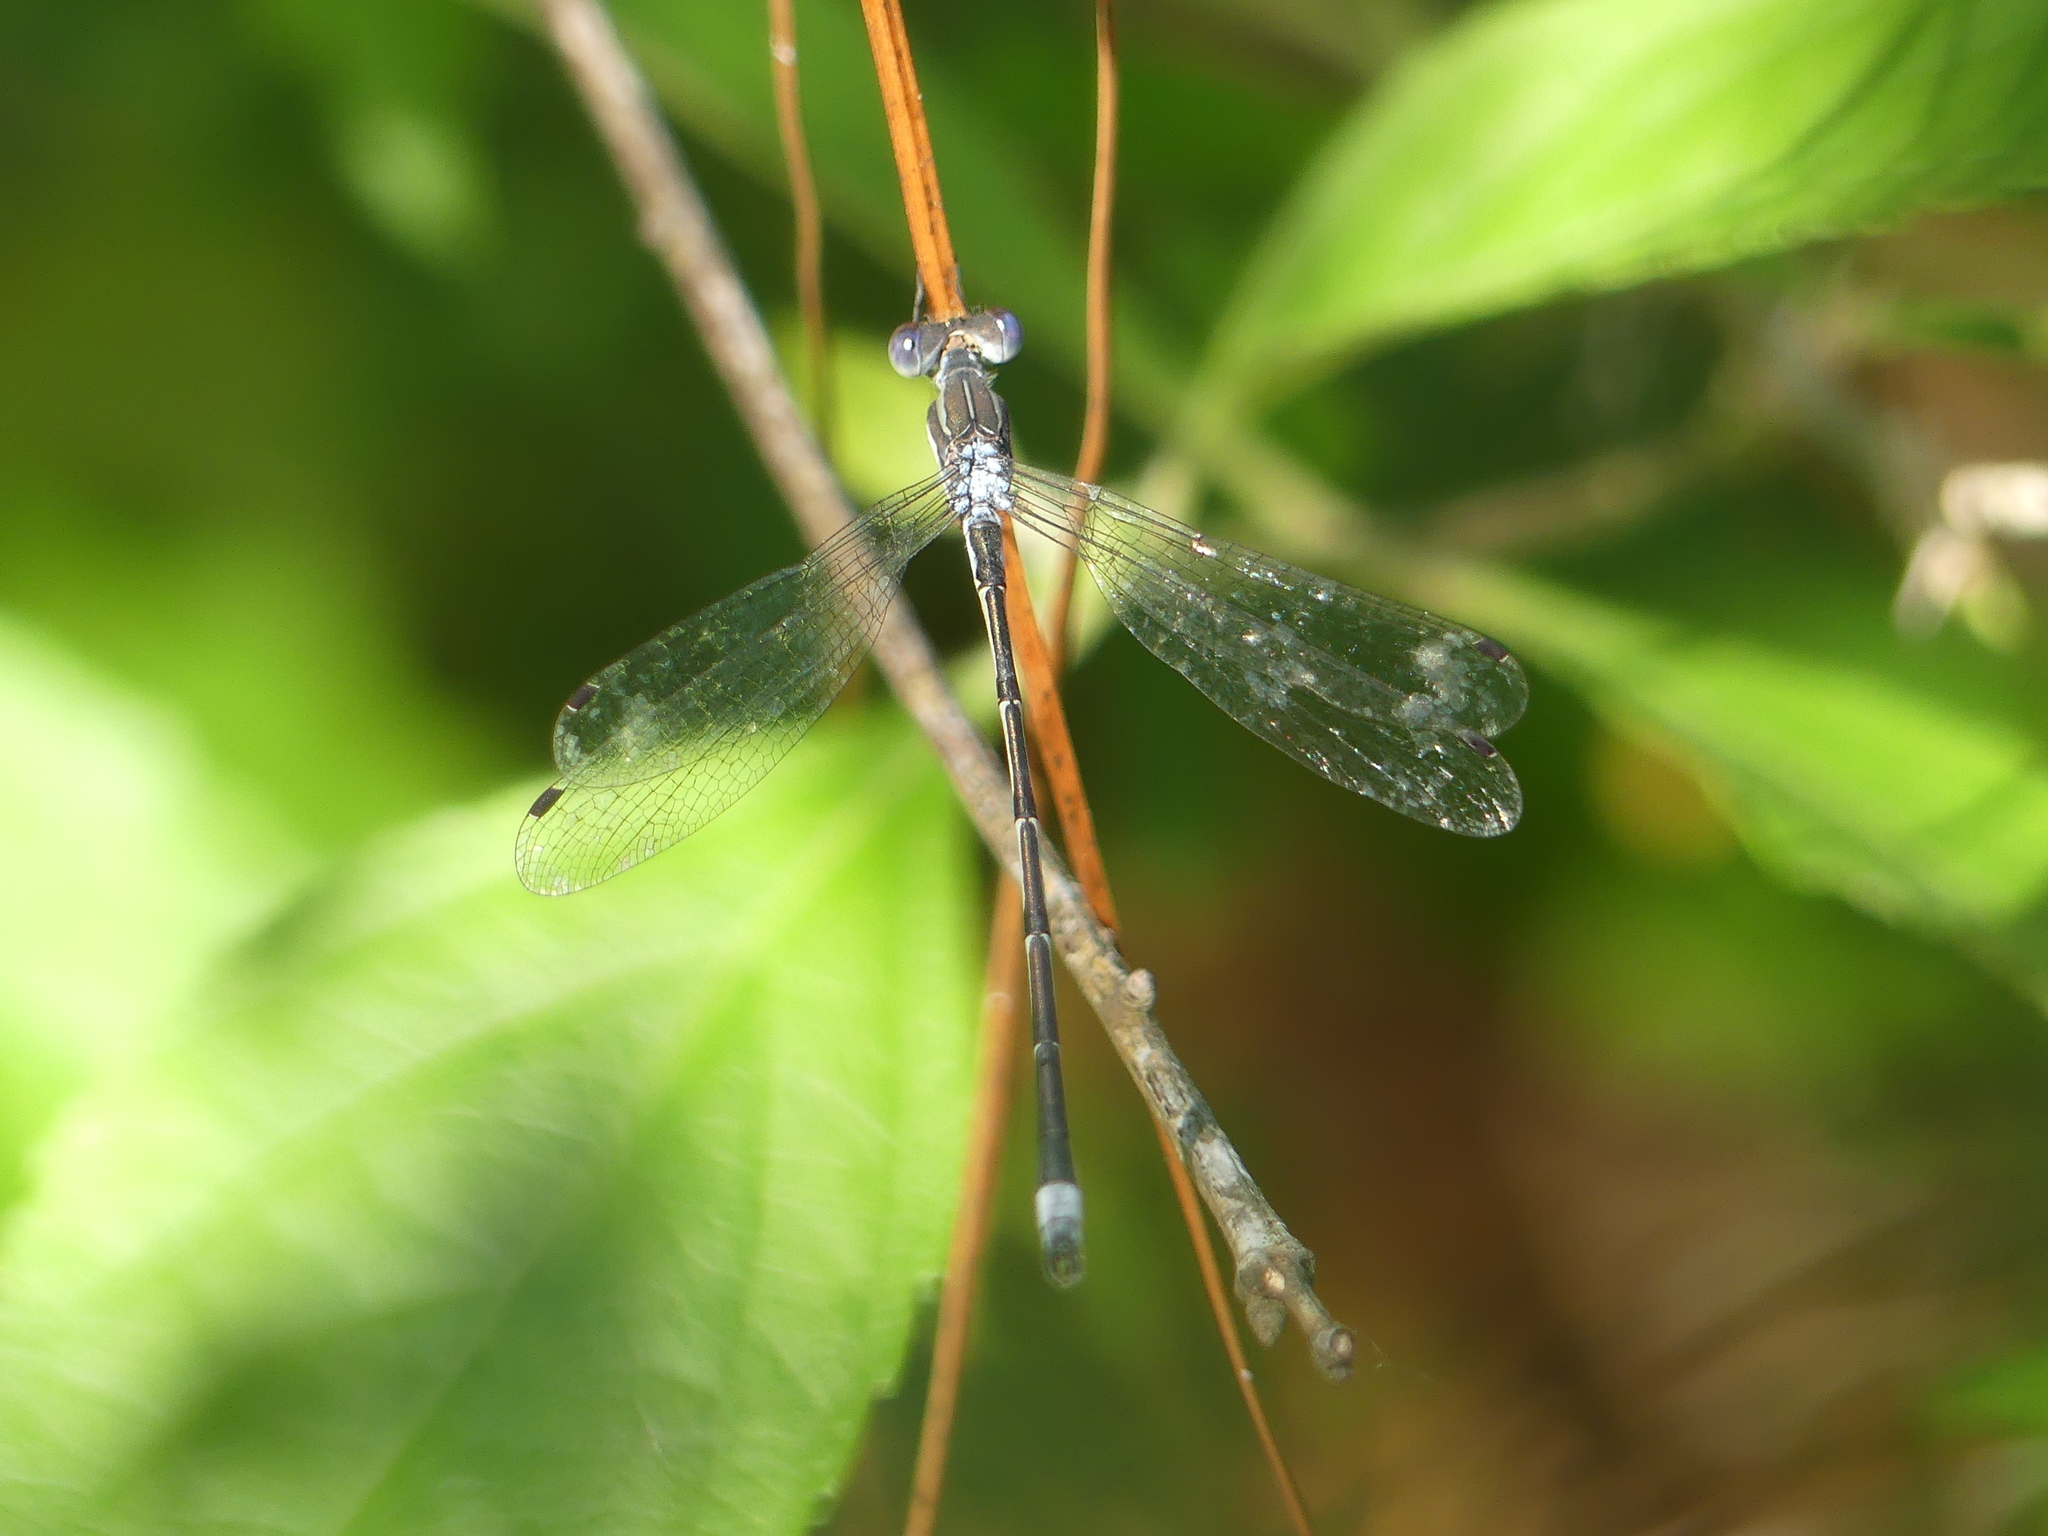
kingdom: Animalia
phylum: Arthropoda
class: Insecta
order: Odonata
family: Lestidae
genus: Lestes
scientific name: Lestes australis
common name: Southern spreadwing
